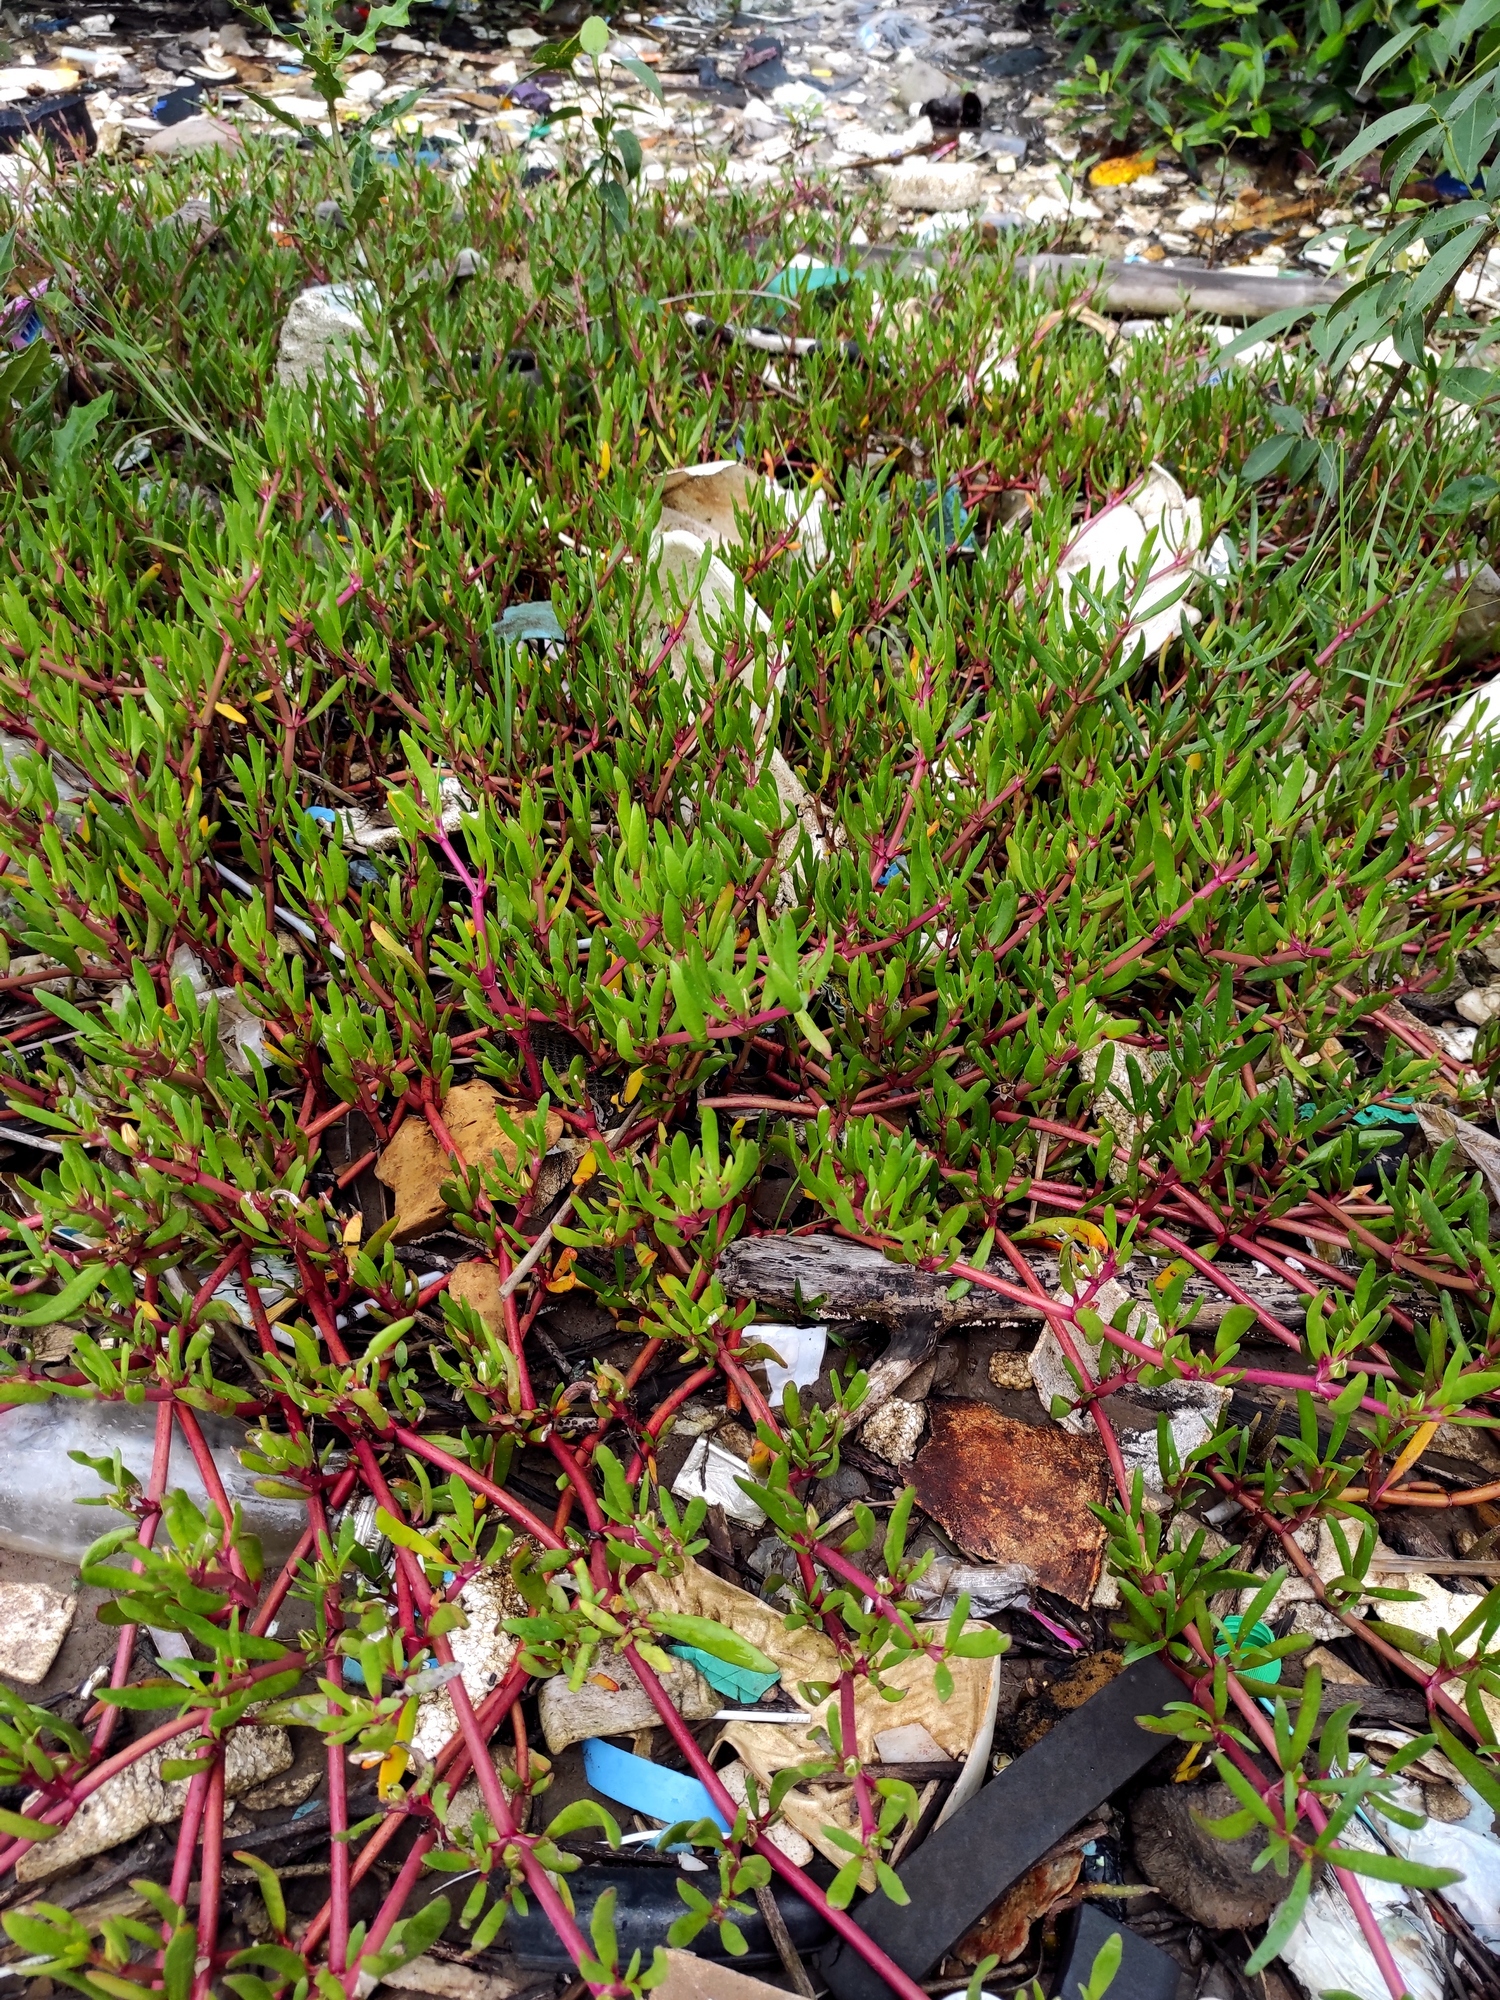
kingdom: Plantae
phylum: Tracheophyta
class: Magnoliopsida
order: Caryophyllales
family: Aizoaceae
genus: Sesuvium
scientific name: Sesuvium portulacastrum
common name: Sea-purslane
